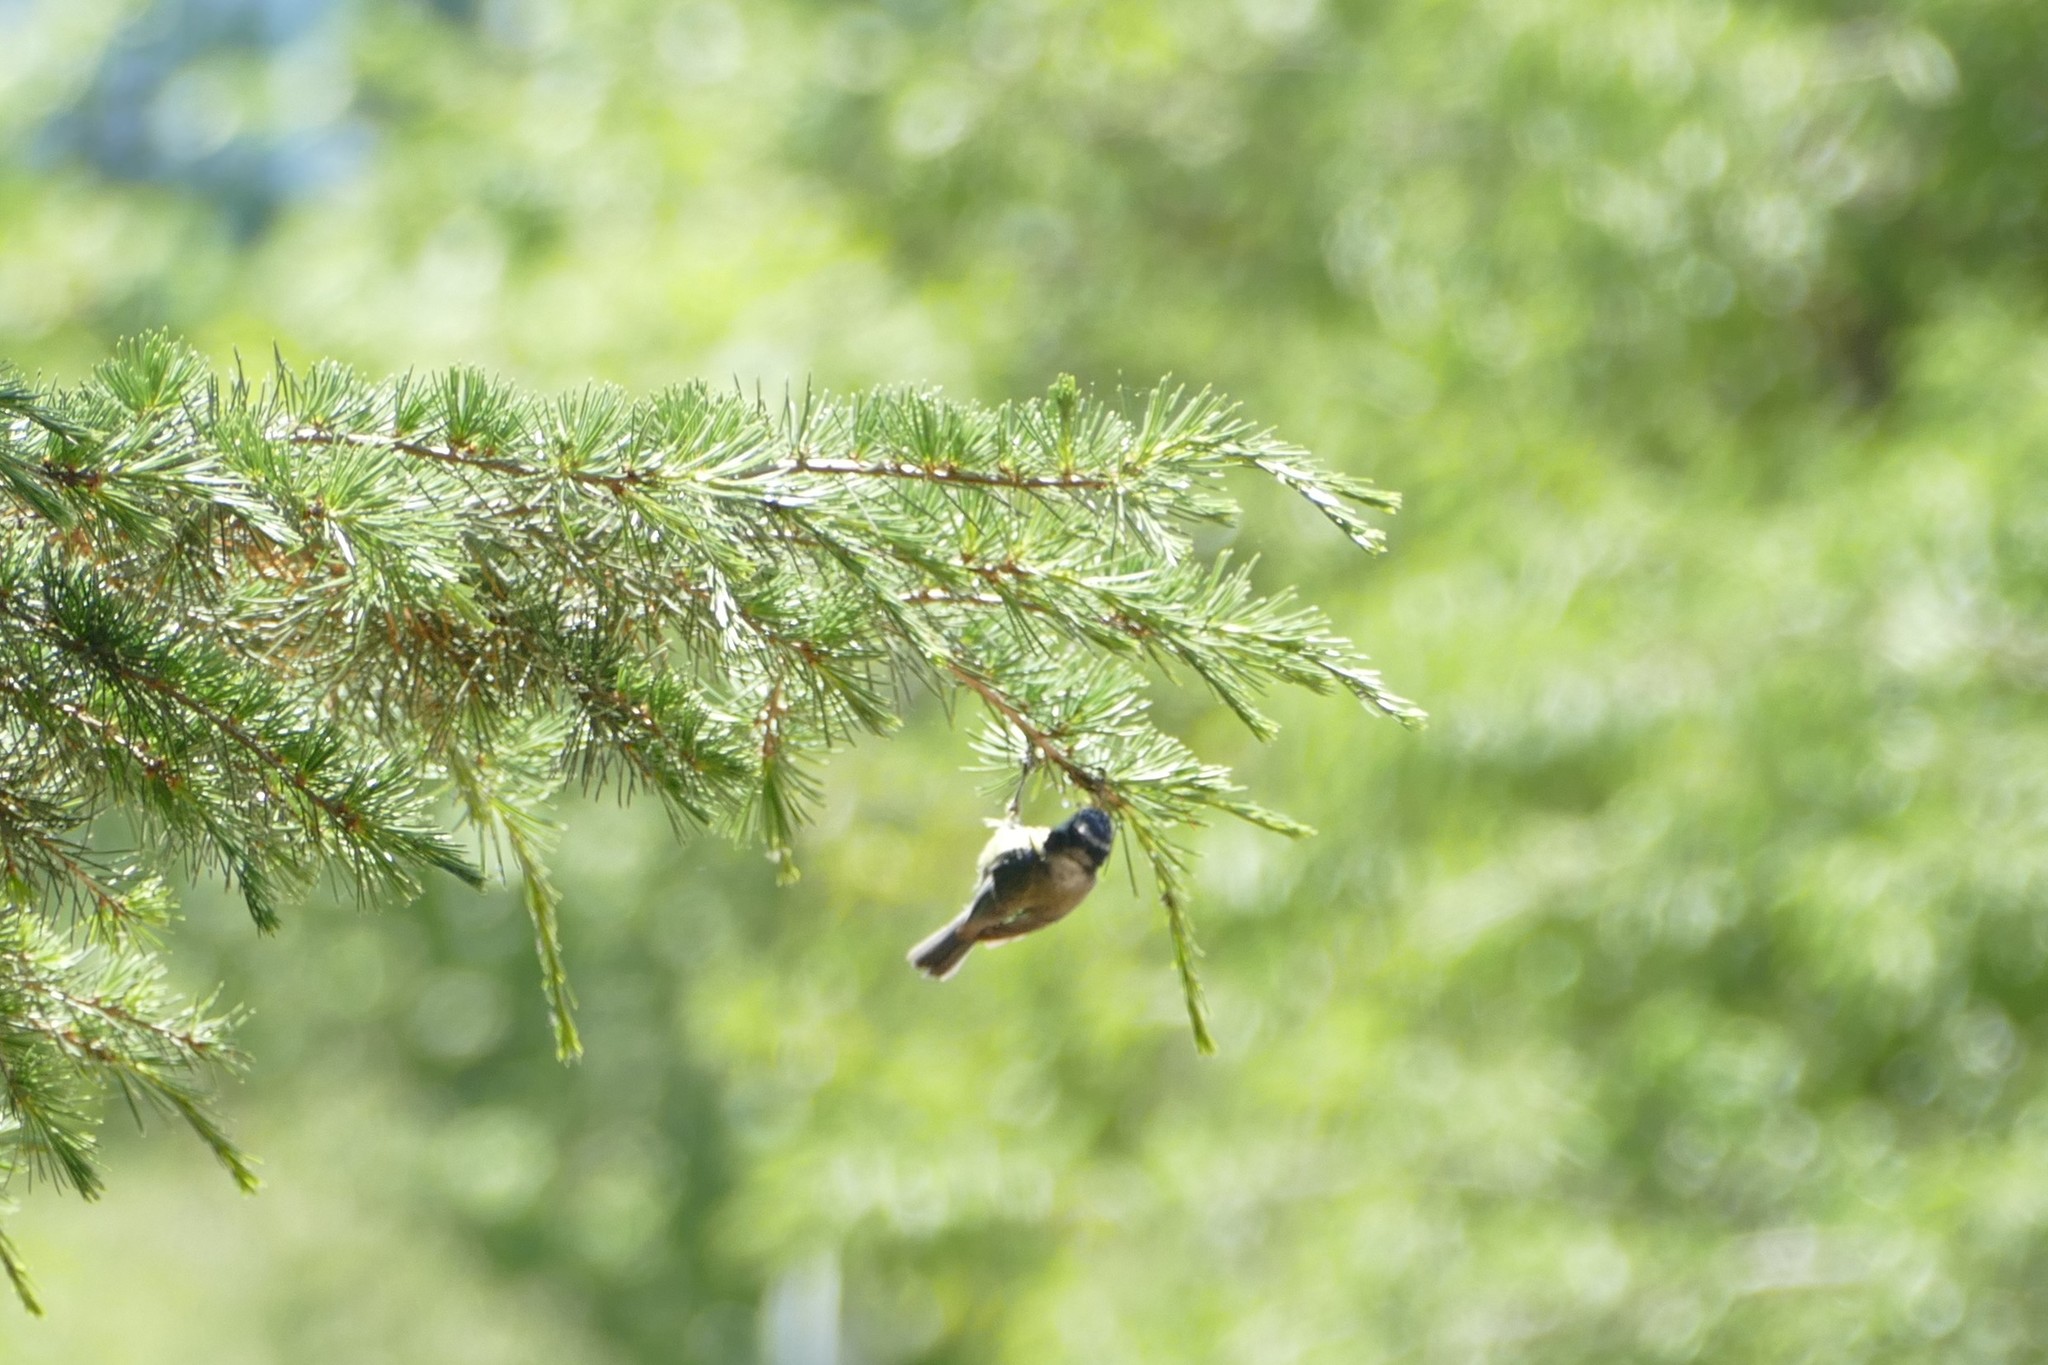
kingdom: Animalia
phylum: Chordata
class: Aves
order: Passeriformes
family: Paridae
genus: Cyanistes
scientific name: Cyanistes caeruleus
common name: Eurasian blue tit
